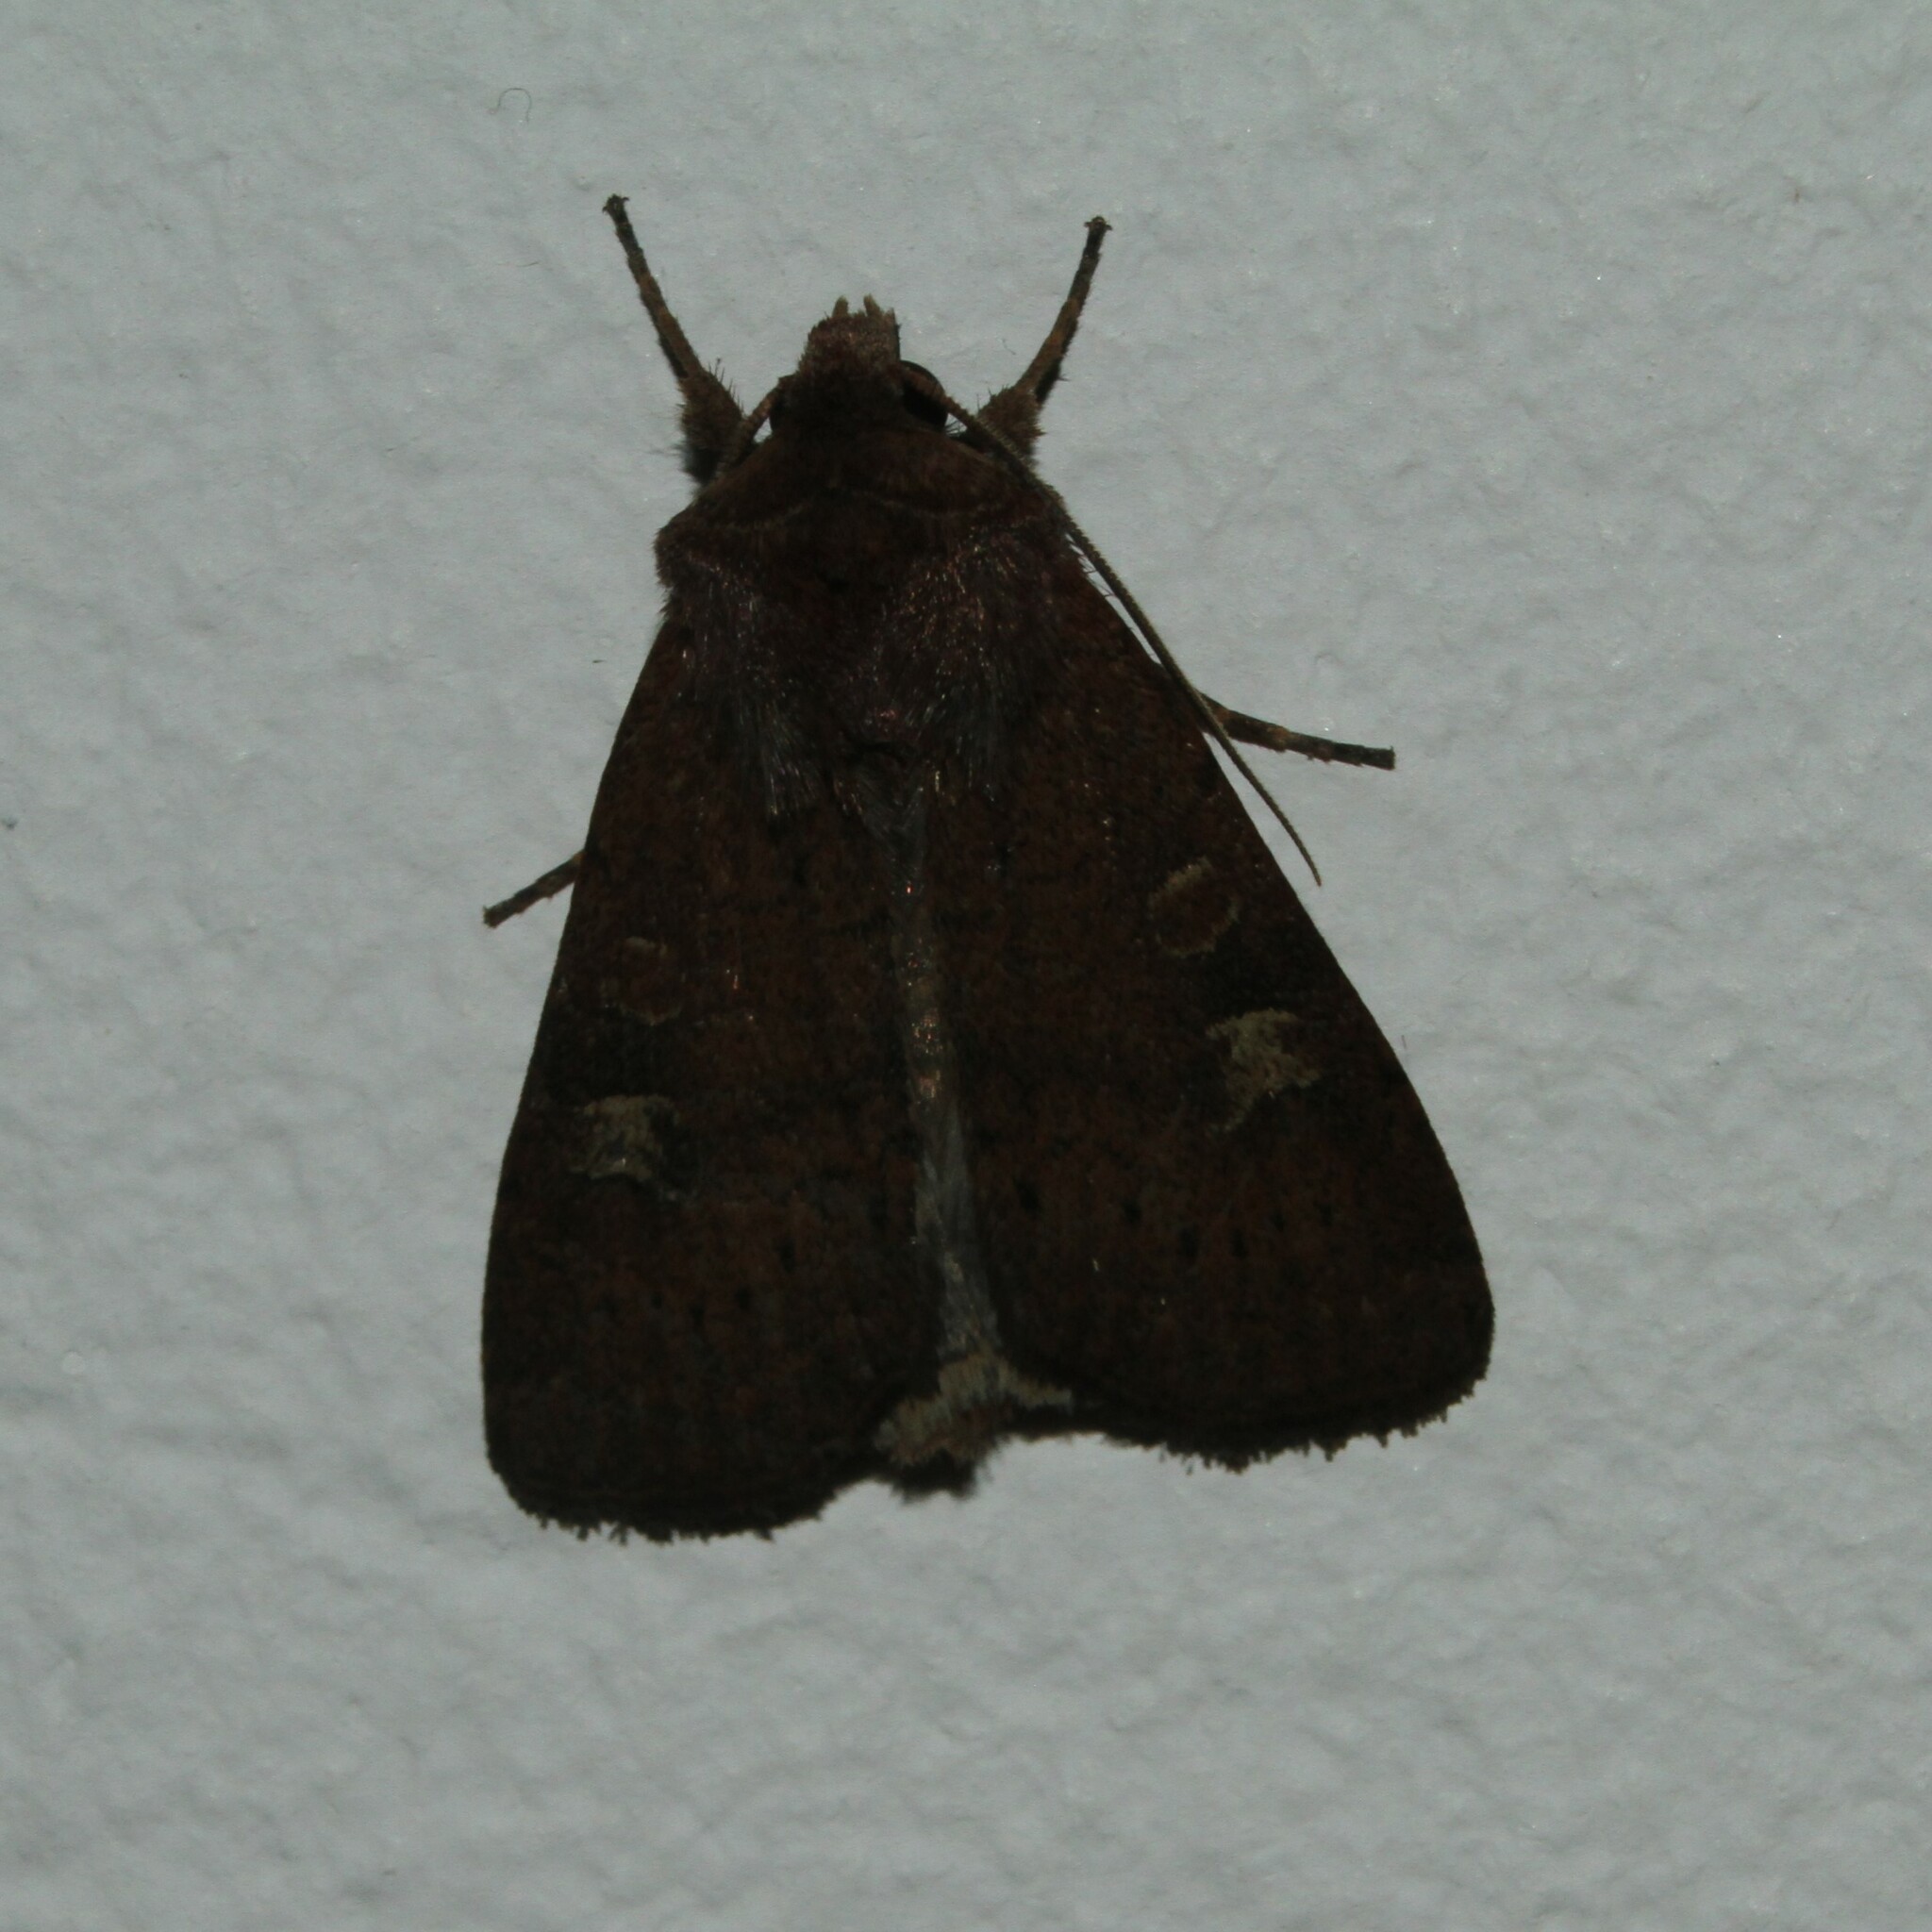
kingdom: Animalia
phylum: Arthropoda
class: Insecta
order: Lepidoptera
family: Noctuidae
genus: Xestia
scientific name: Xestia xanthographa
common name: Square-spot rustic
